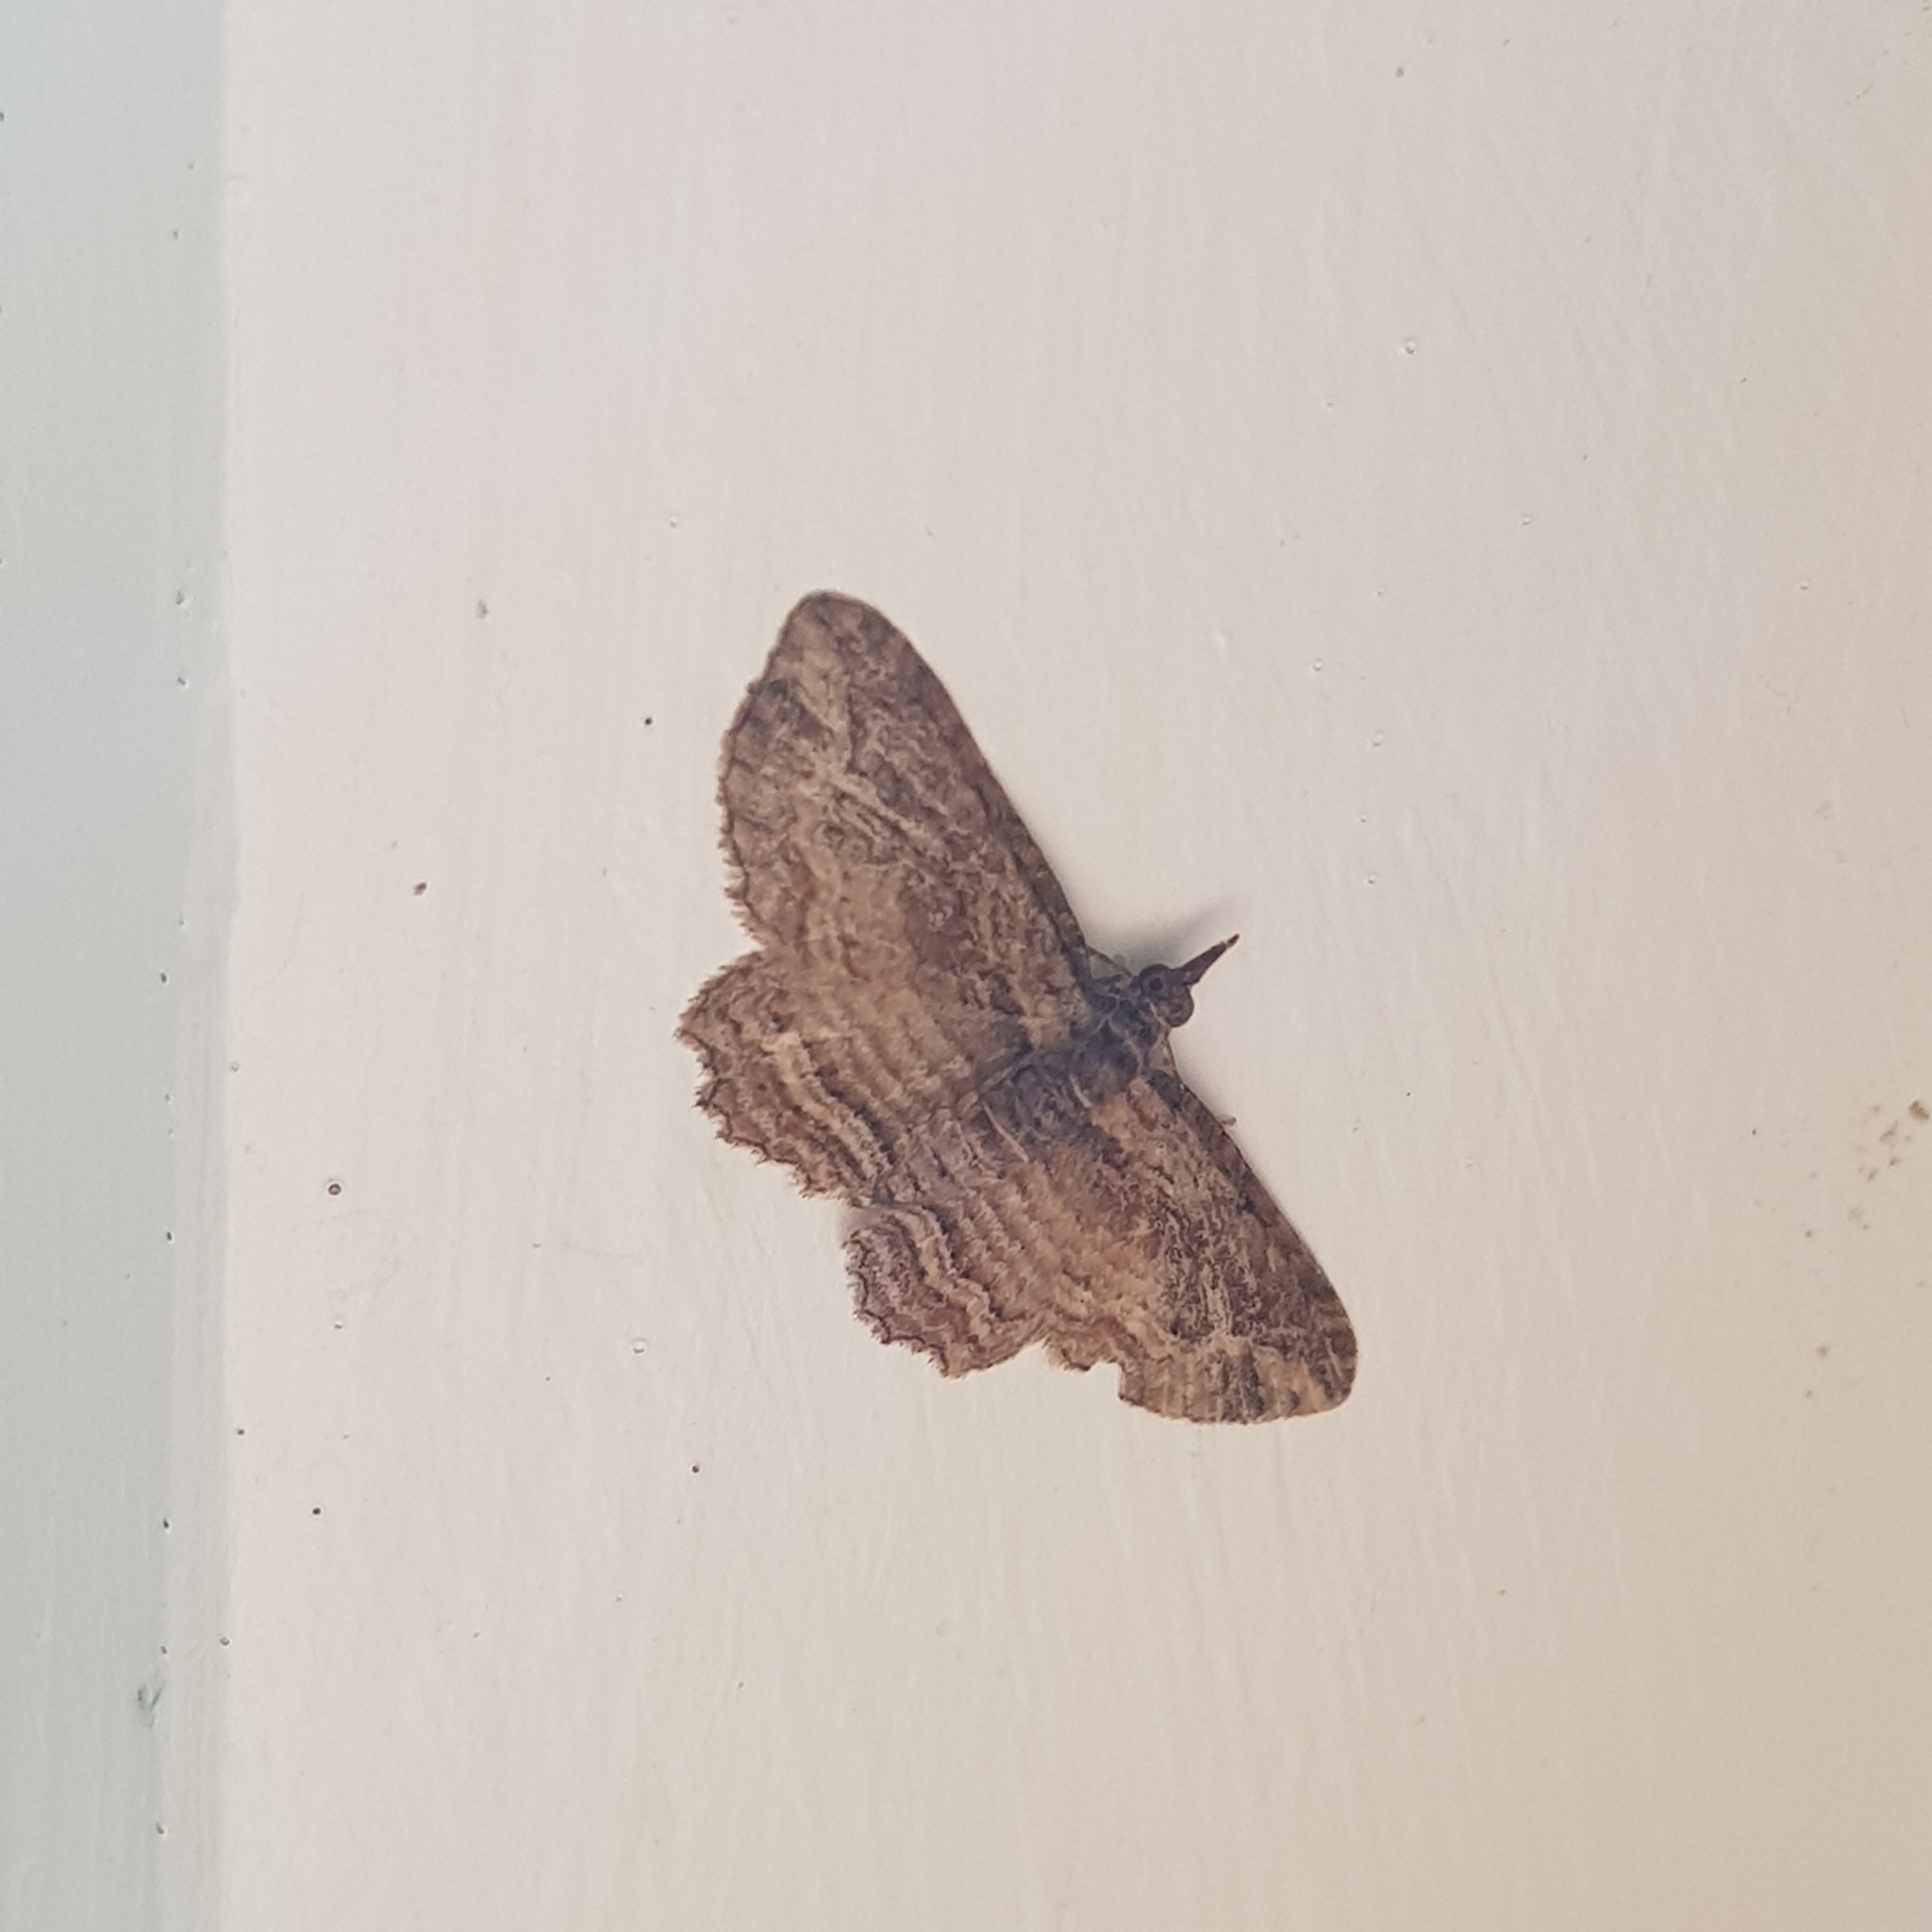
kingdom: Animalia
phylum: Arthropoda
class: Insecta
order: Lepidoptera
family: Geometridae
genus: Chloroclystis
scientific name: Chloroclystis filata
